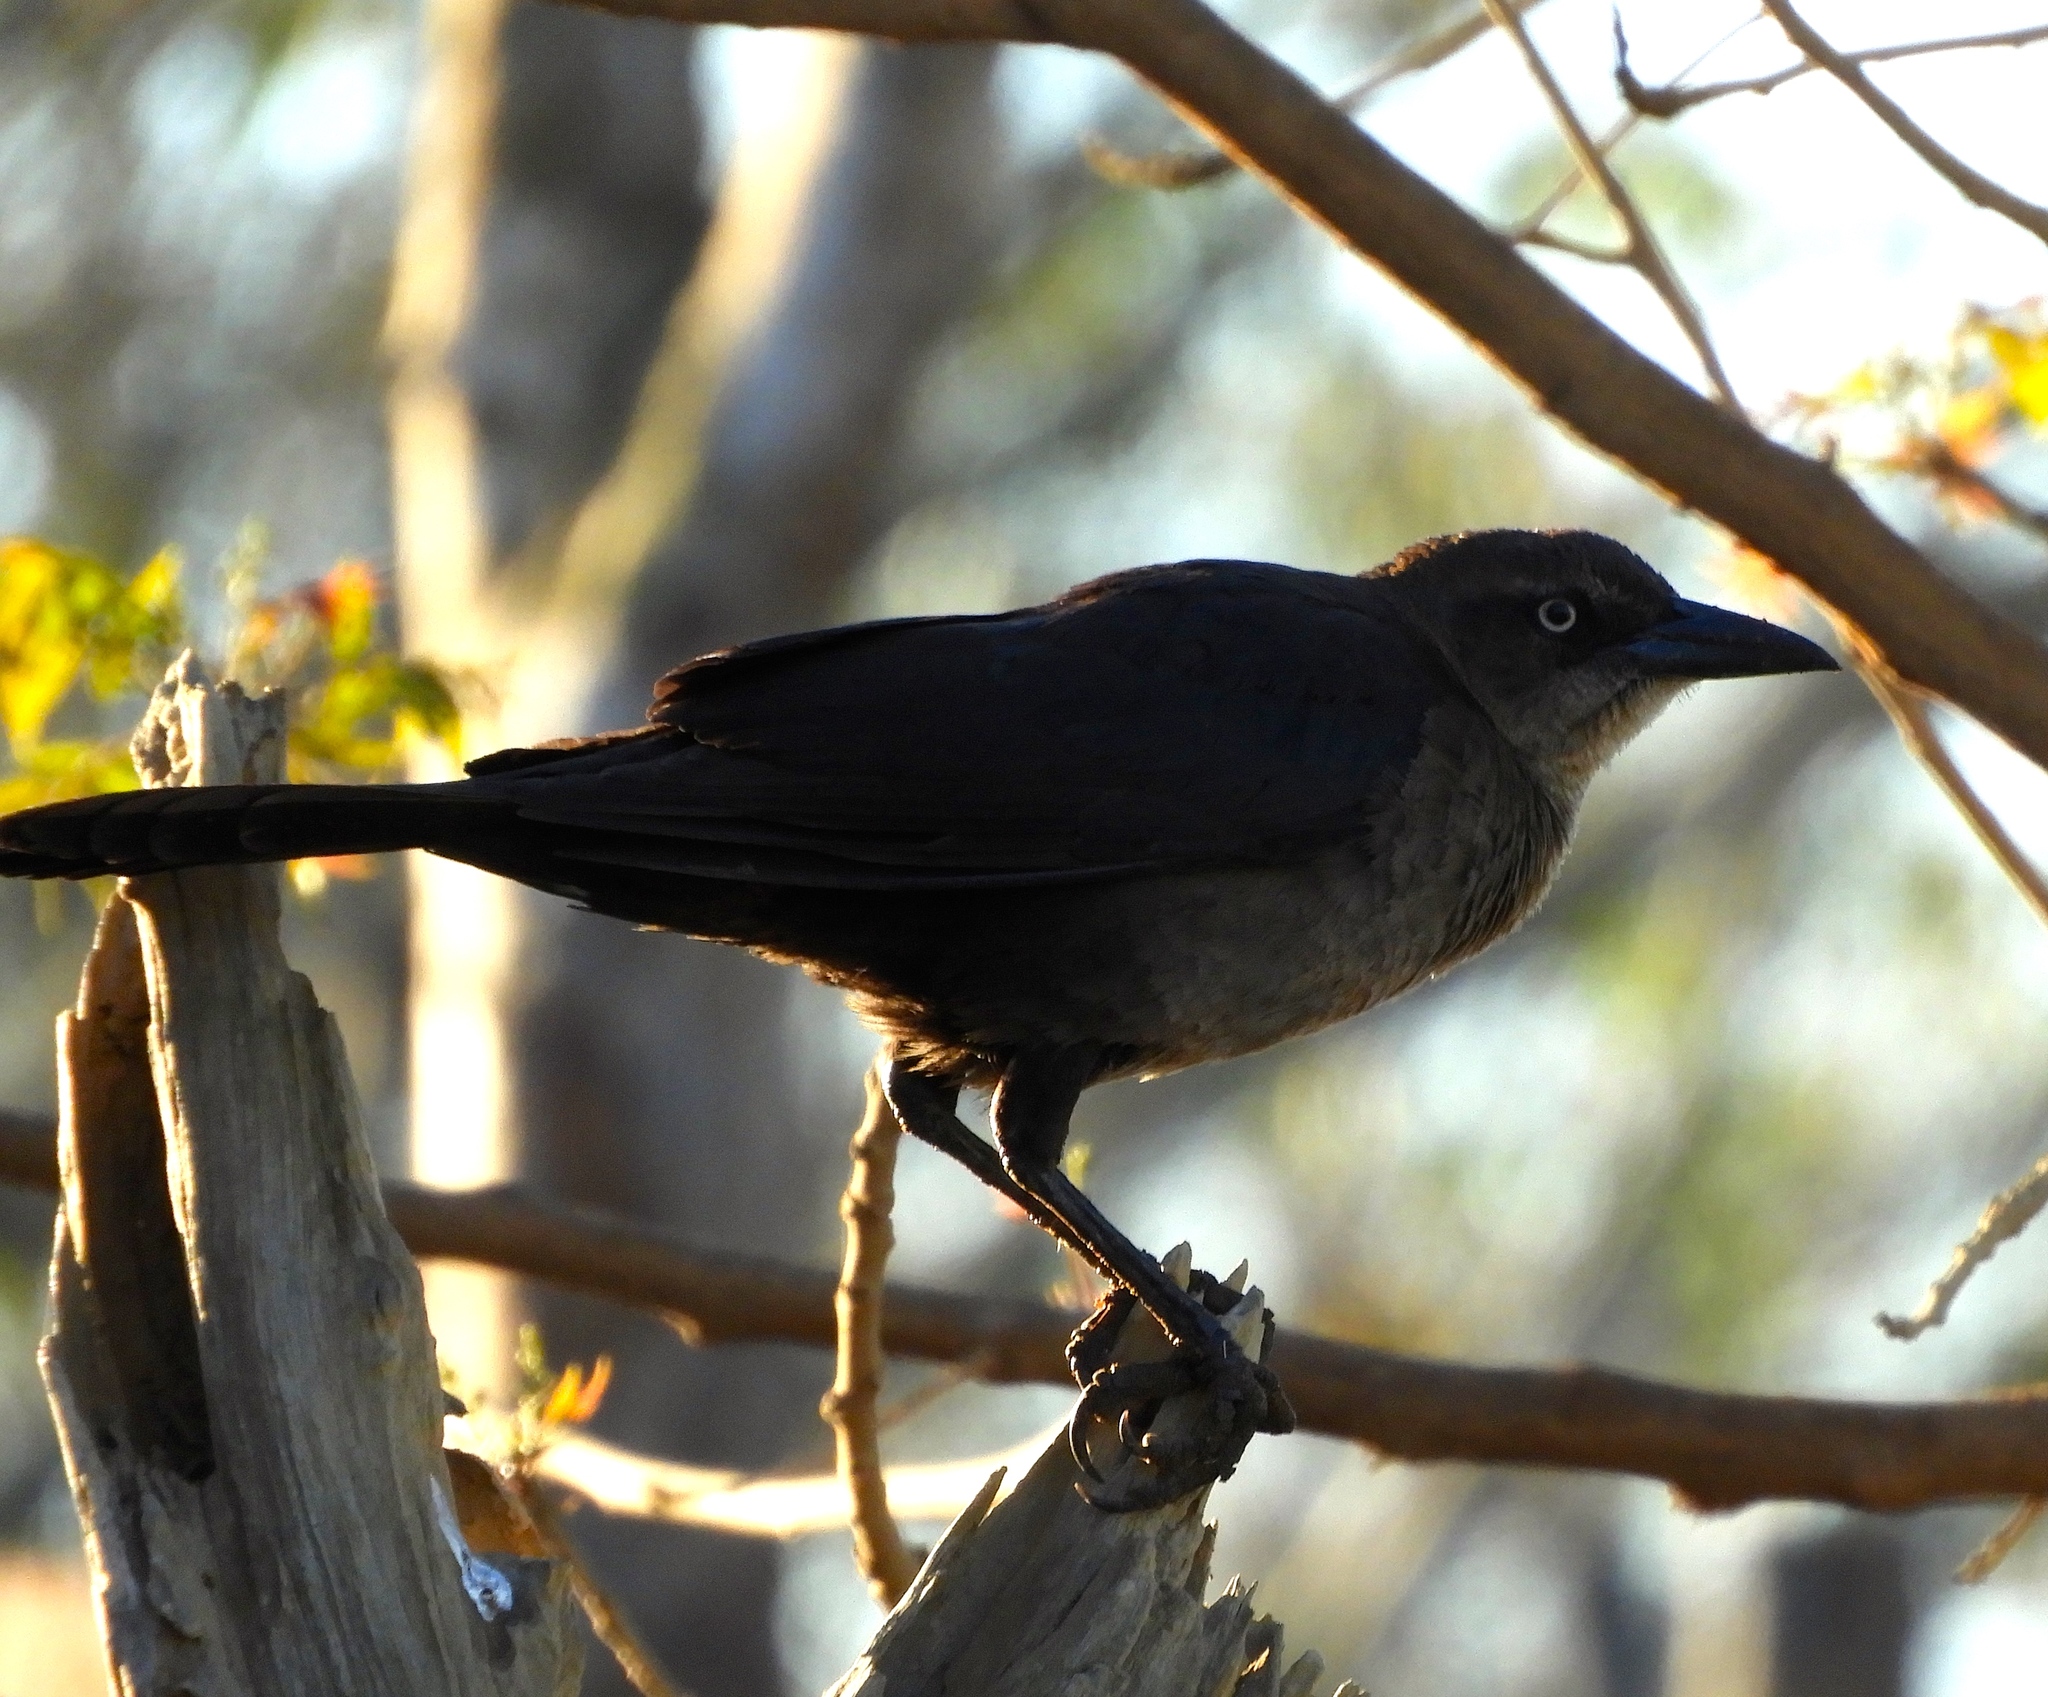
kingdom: Animalia
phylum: Chordata
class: Aves
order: Passeriformes
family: Icteridae
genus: Quiscalus
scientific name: Quiscalus mexicanus
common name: Great-tailed grackle
